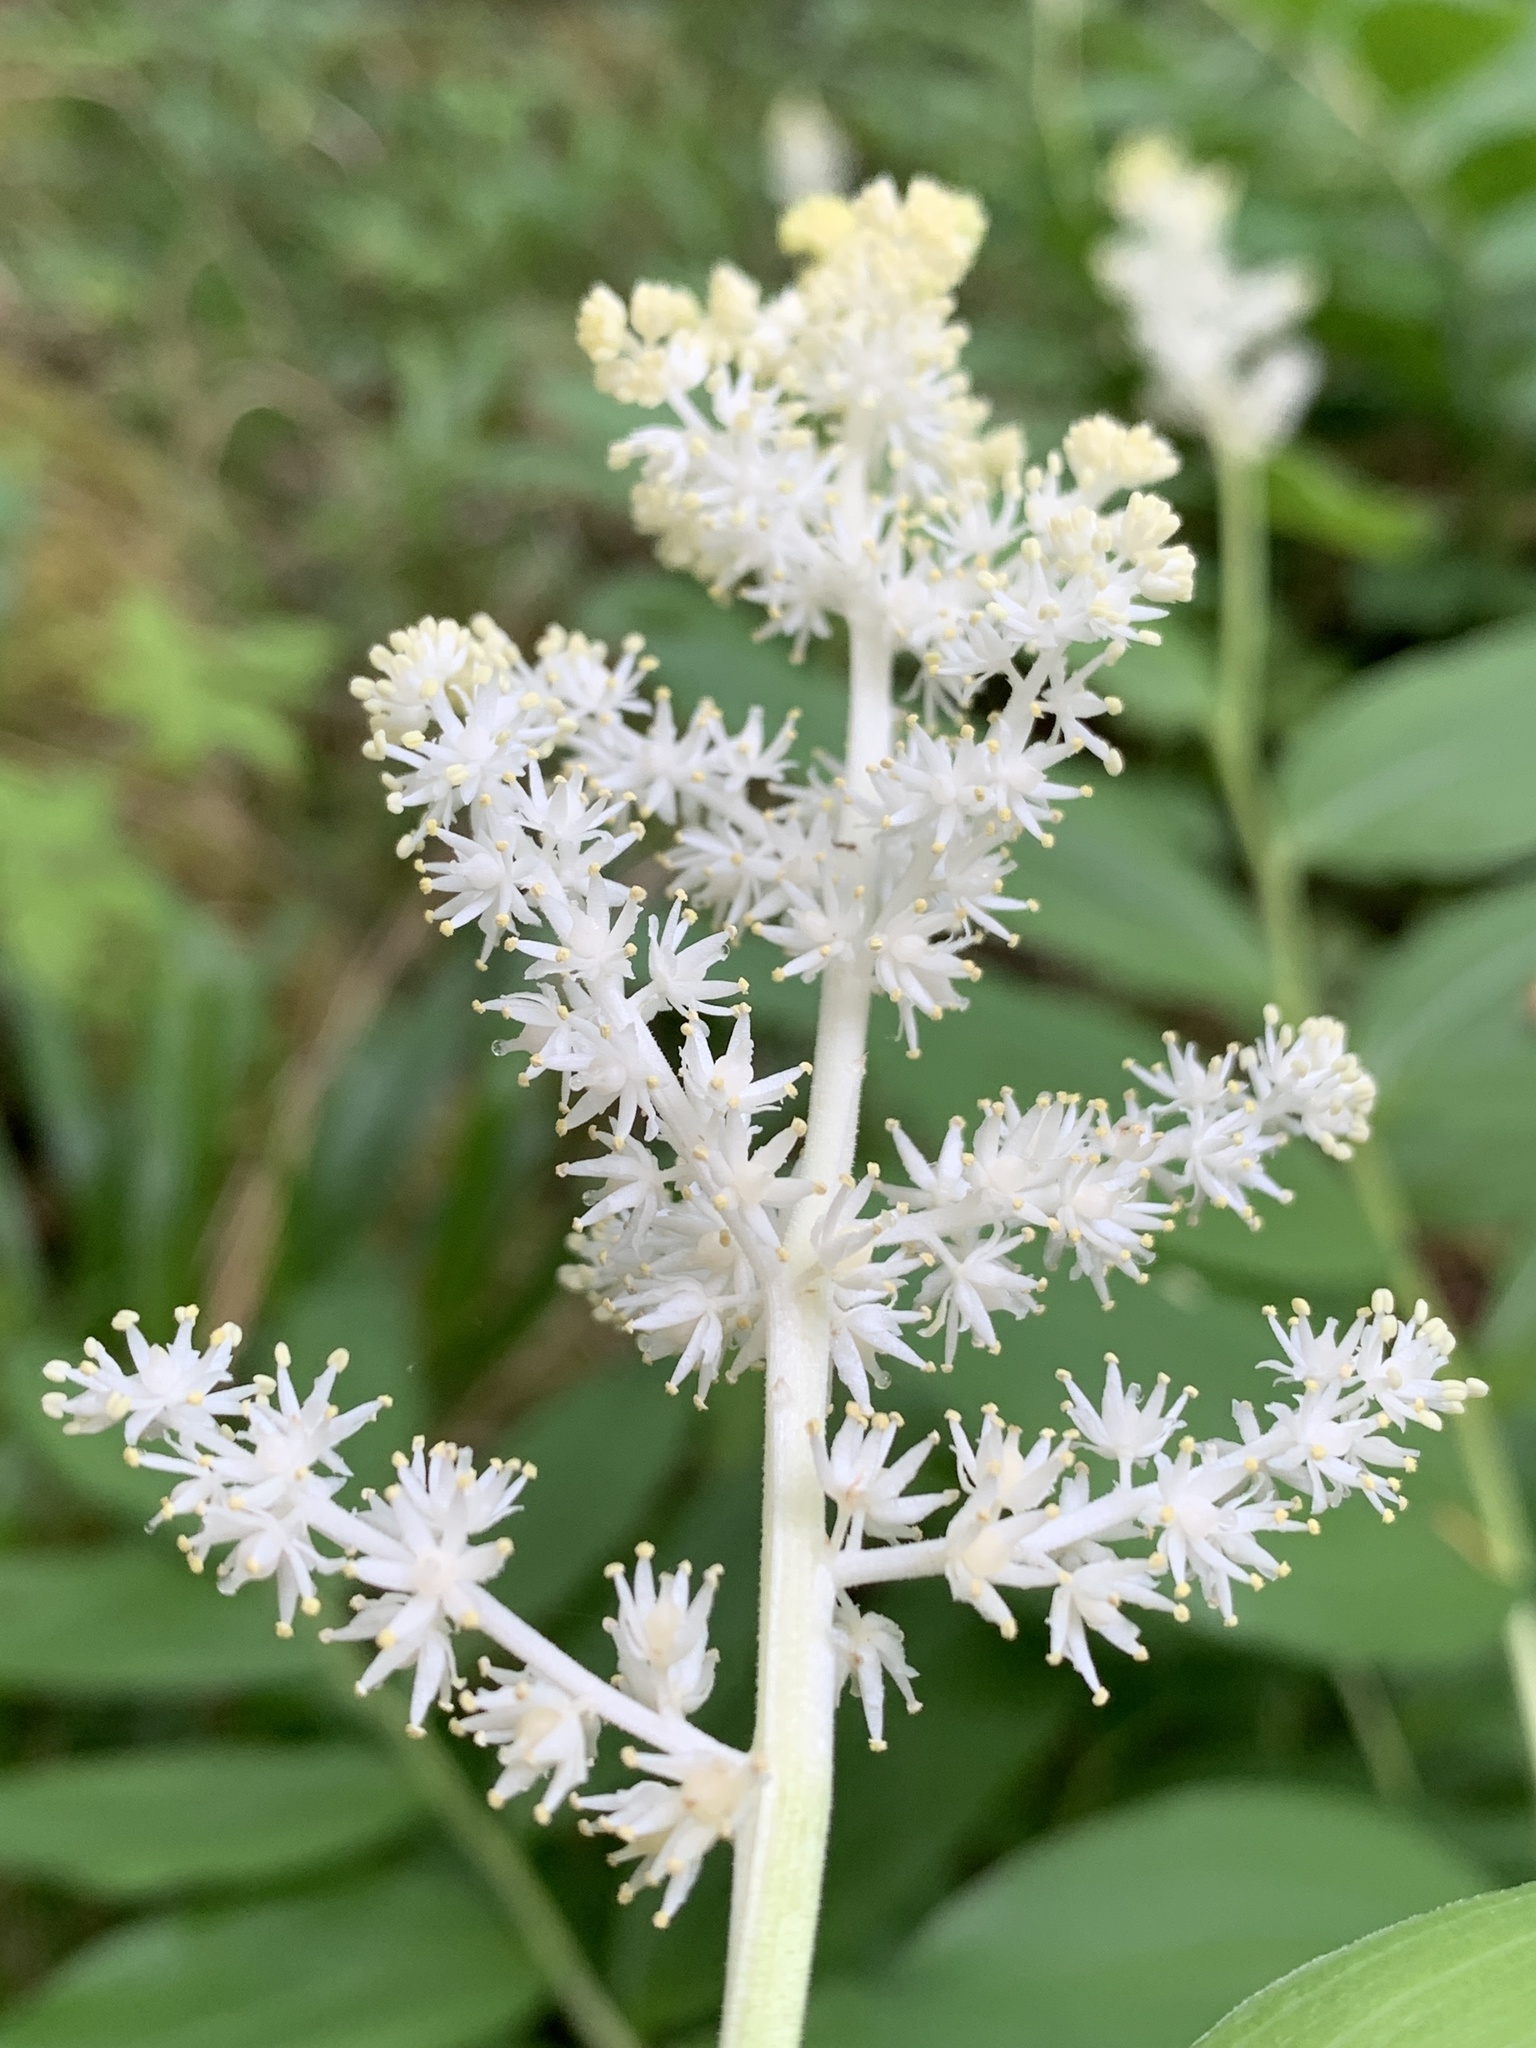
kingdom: Plantae
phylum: Tracheophyta
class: Liliopsida
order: Asparagales
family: Asparagaceae
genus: Maianthemum
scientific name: Maianthemum racemosum
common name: False spikenard
